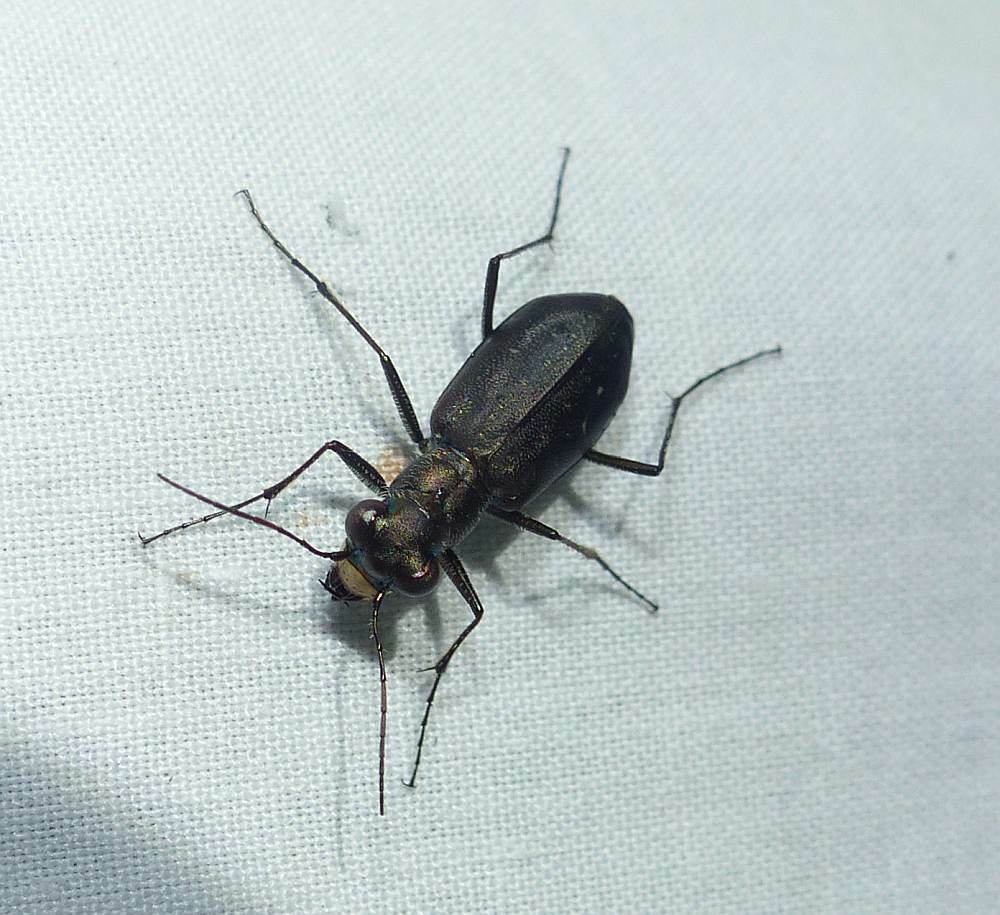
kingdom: Animalia
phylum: Arthropoda
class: Insecta
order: Coleoptera
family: Carabidae
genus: Cicindela
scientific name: Cicindela punctulata
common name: Punctured tiger beetle
